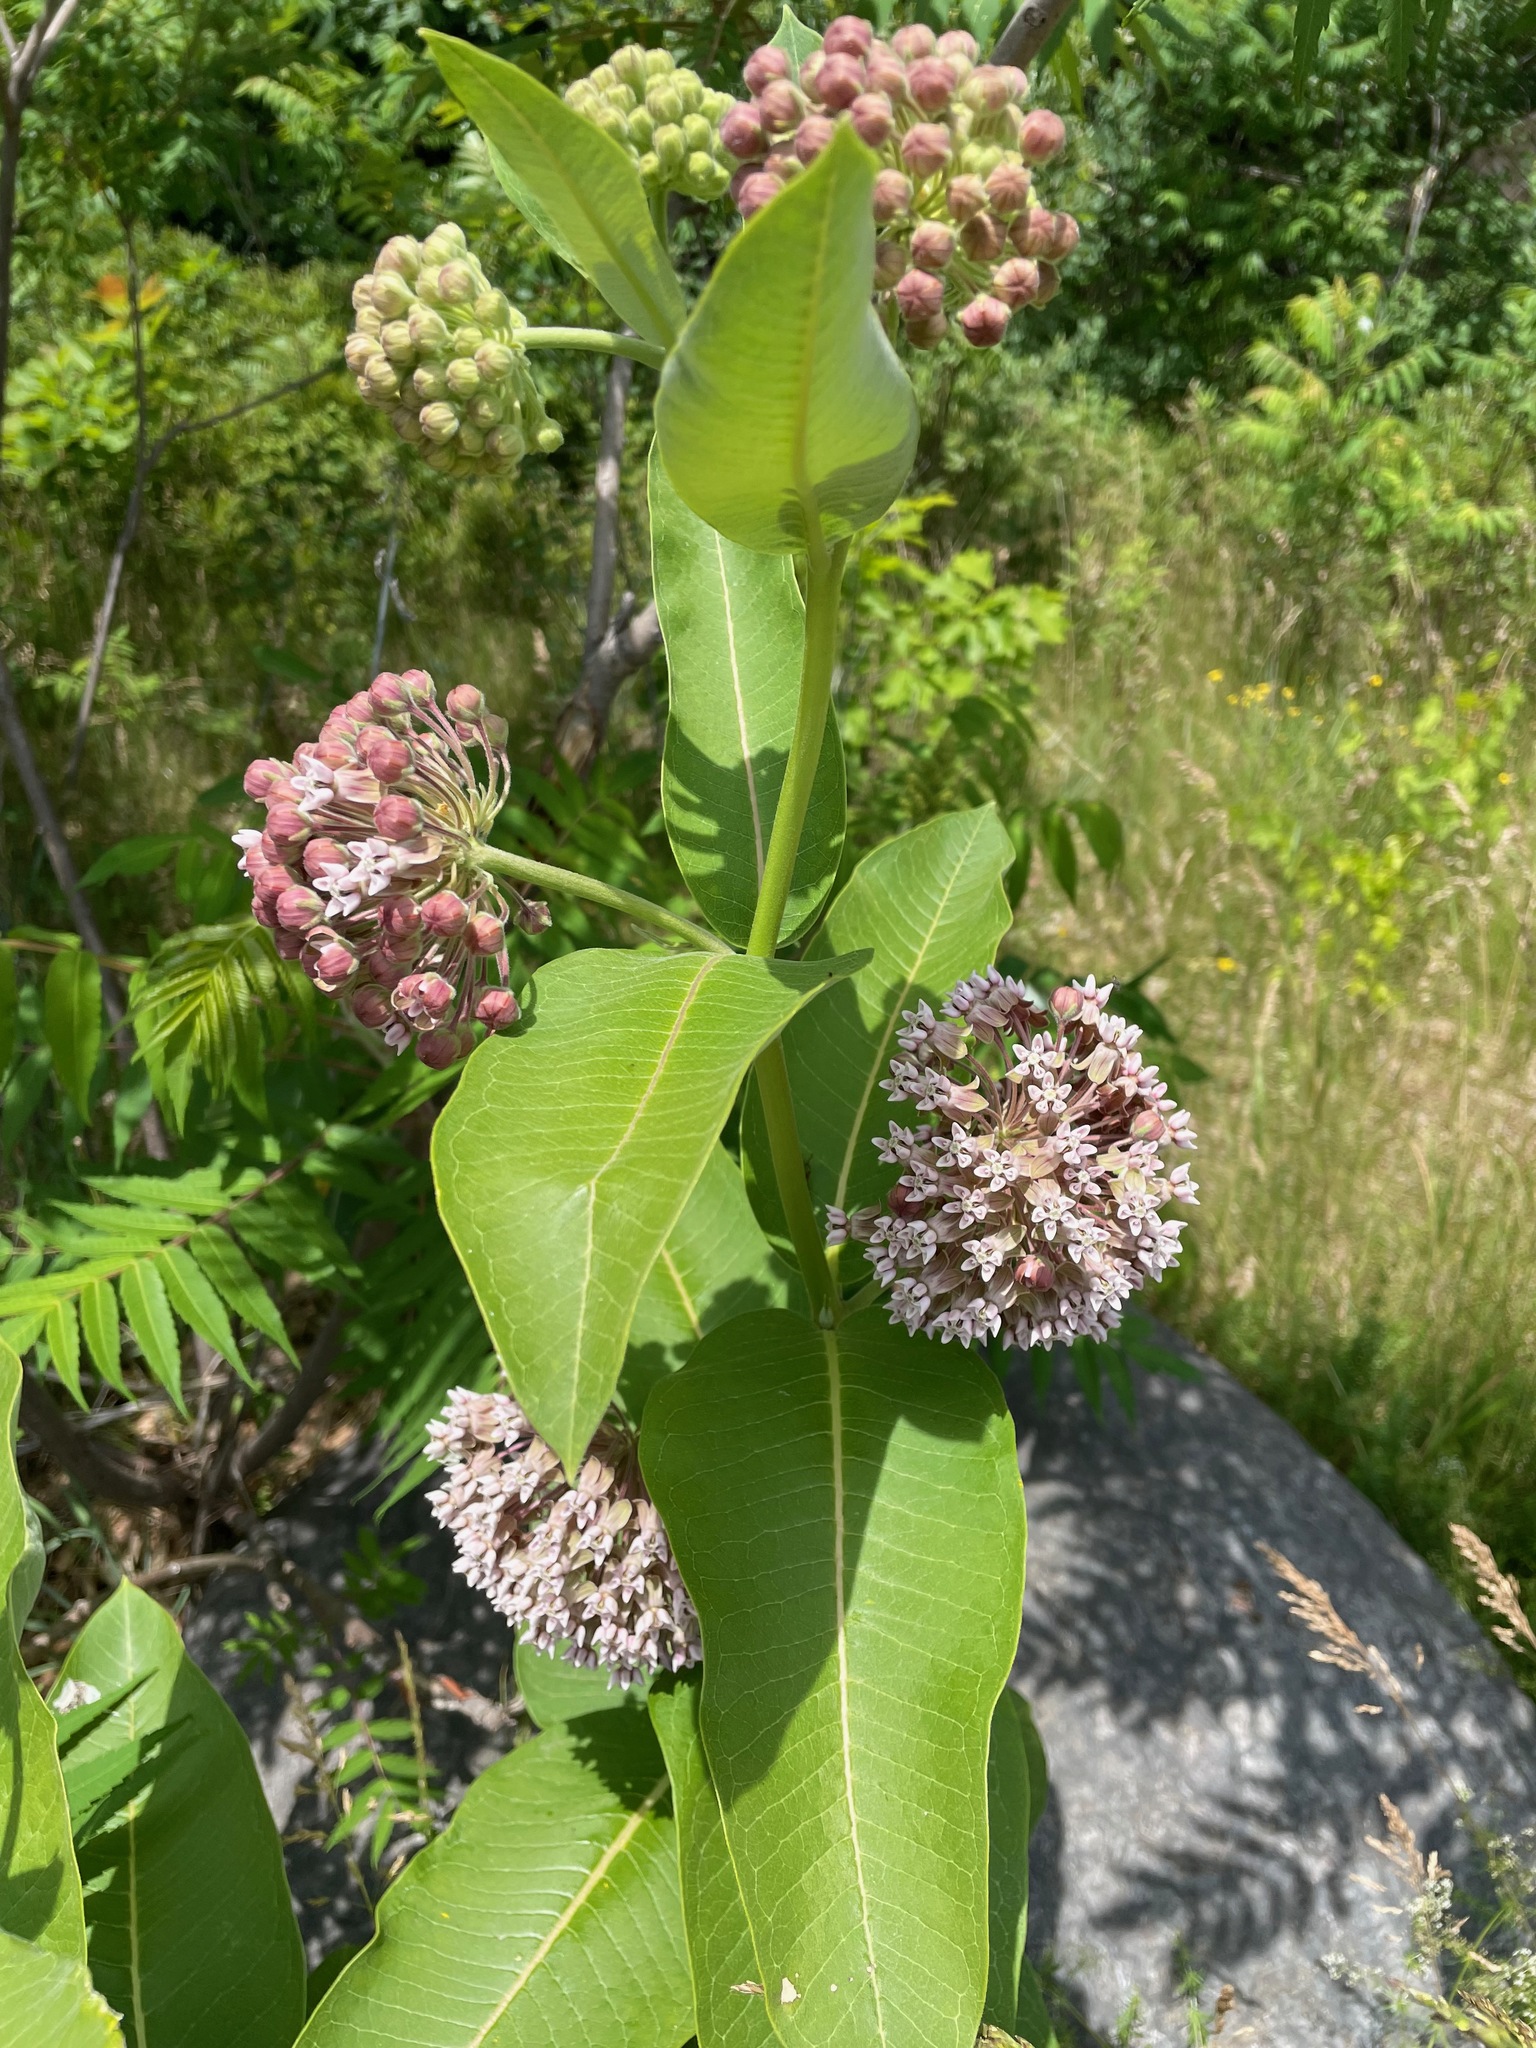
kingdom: Plantae
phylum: Tracheophyta
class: Magnoliopsida
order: Gentianales
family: Apocynaceae
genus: Asclepias
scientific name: Asclepias syriaca
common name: Common milkweed
